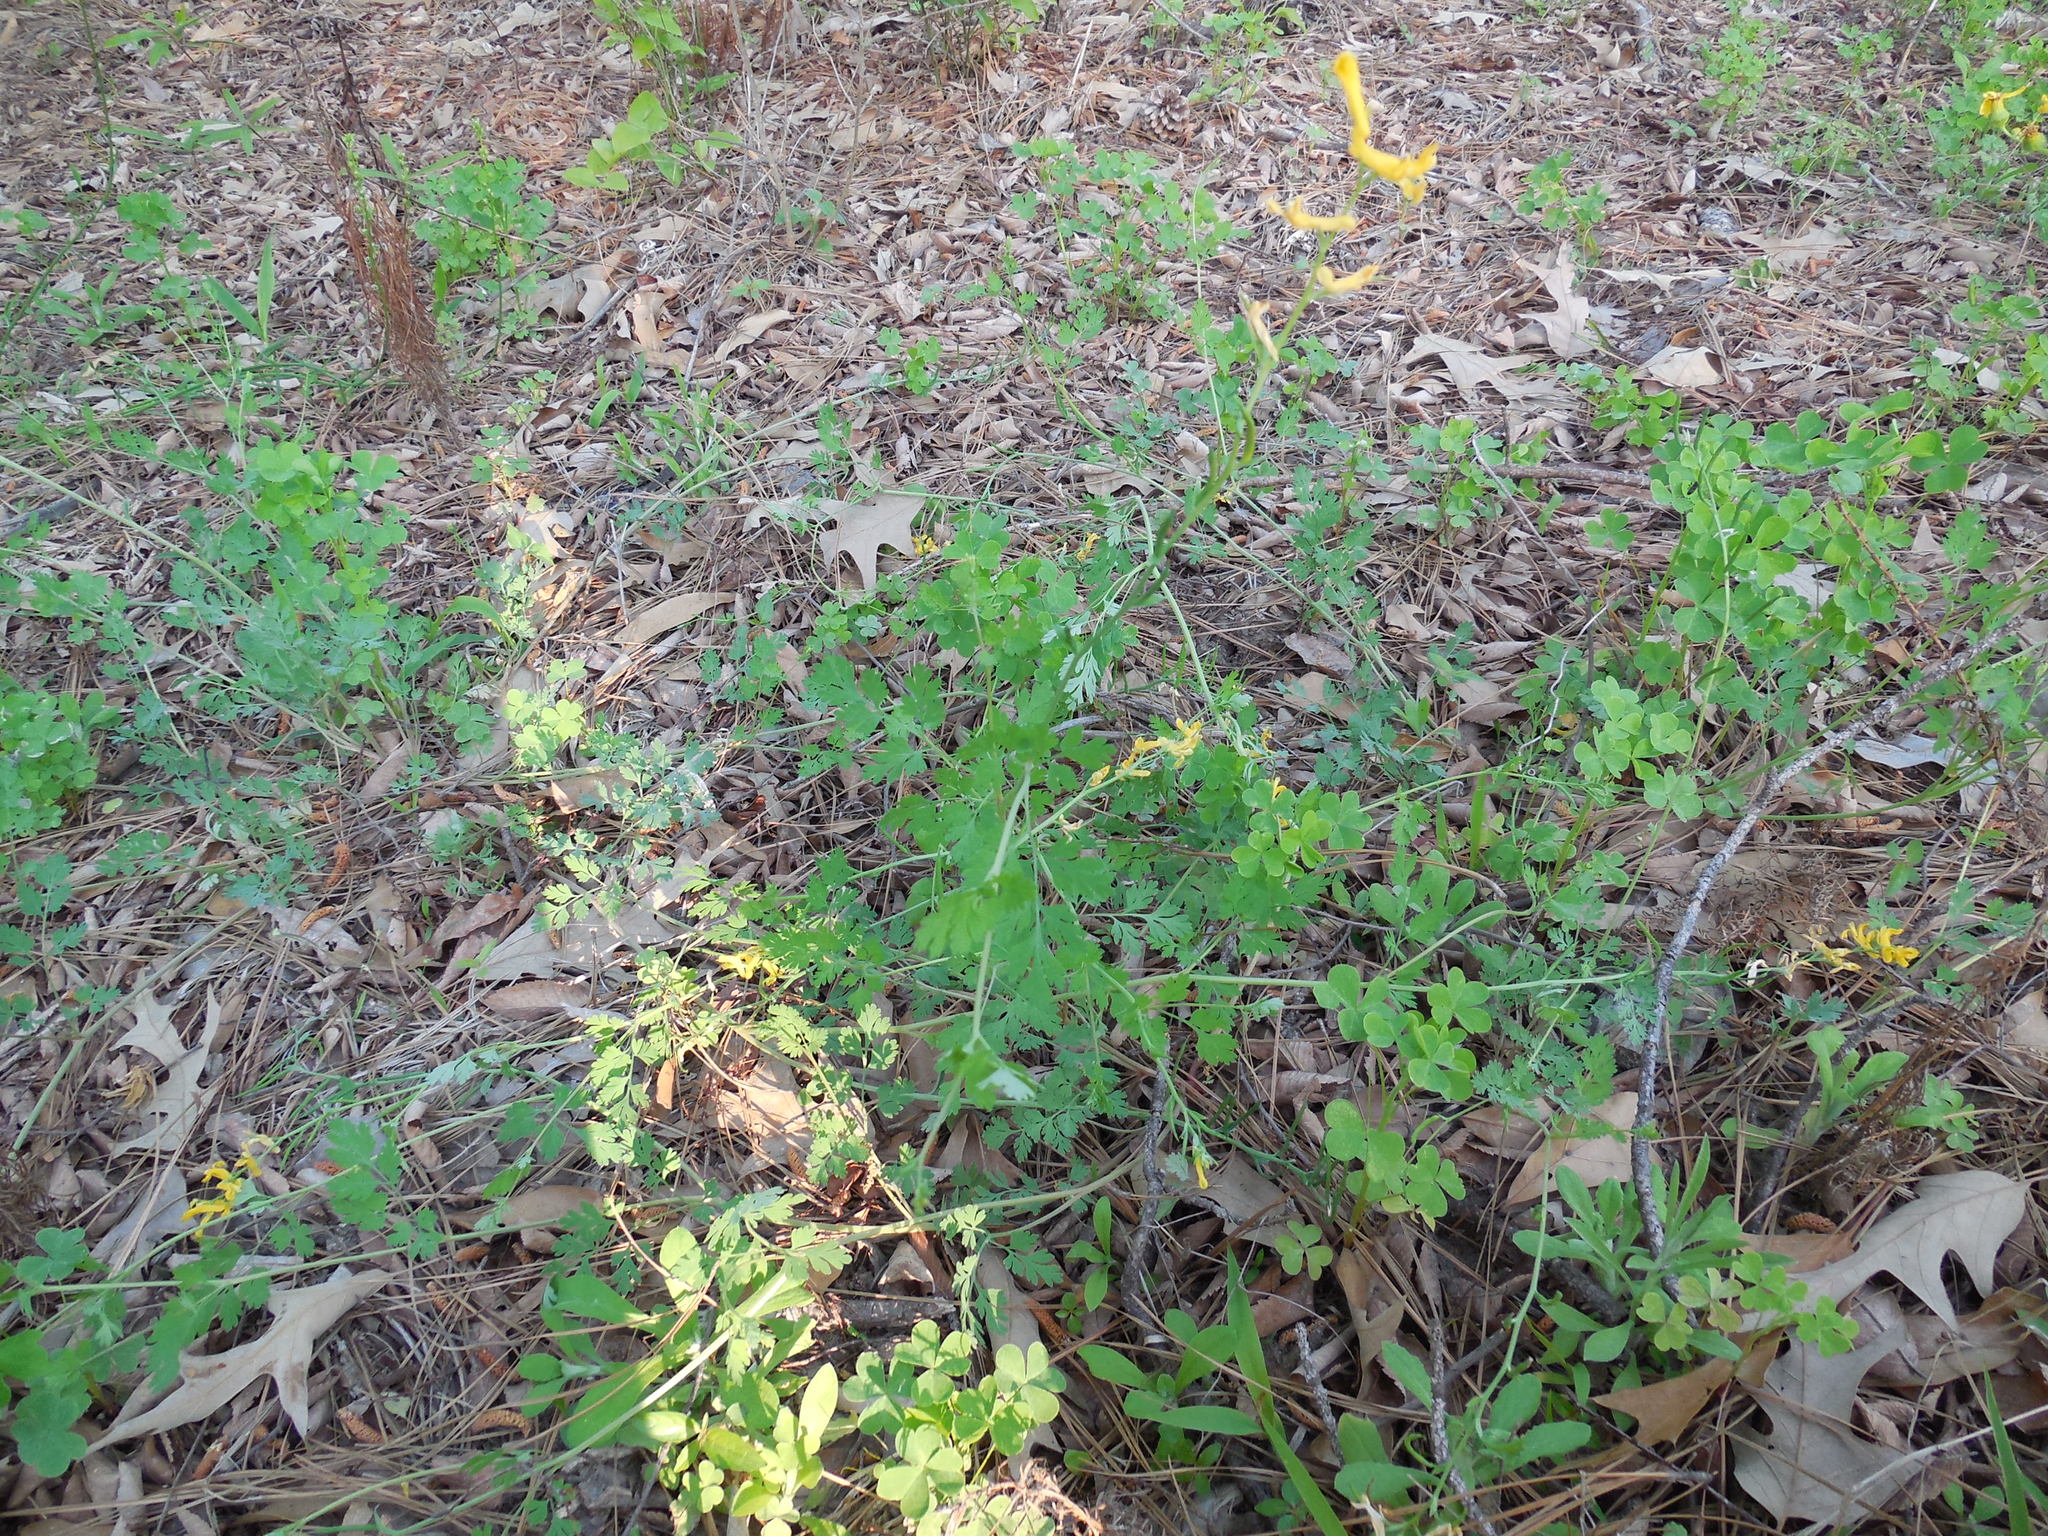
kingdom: Plantae
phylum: Tracheophyta
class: Magnoliopsida
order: Ranunculales
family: Papaveraceae
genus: Corydalis
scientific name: Corydalis curvisiliqua
